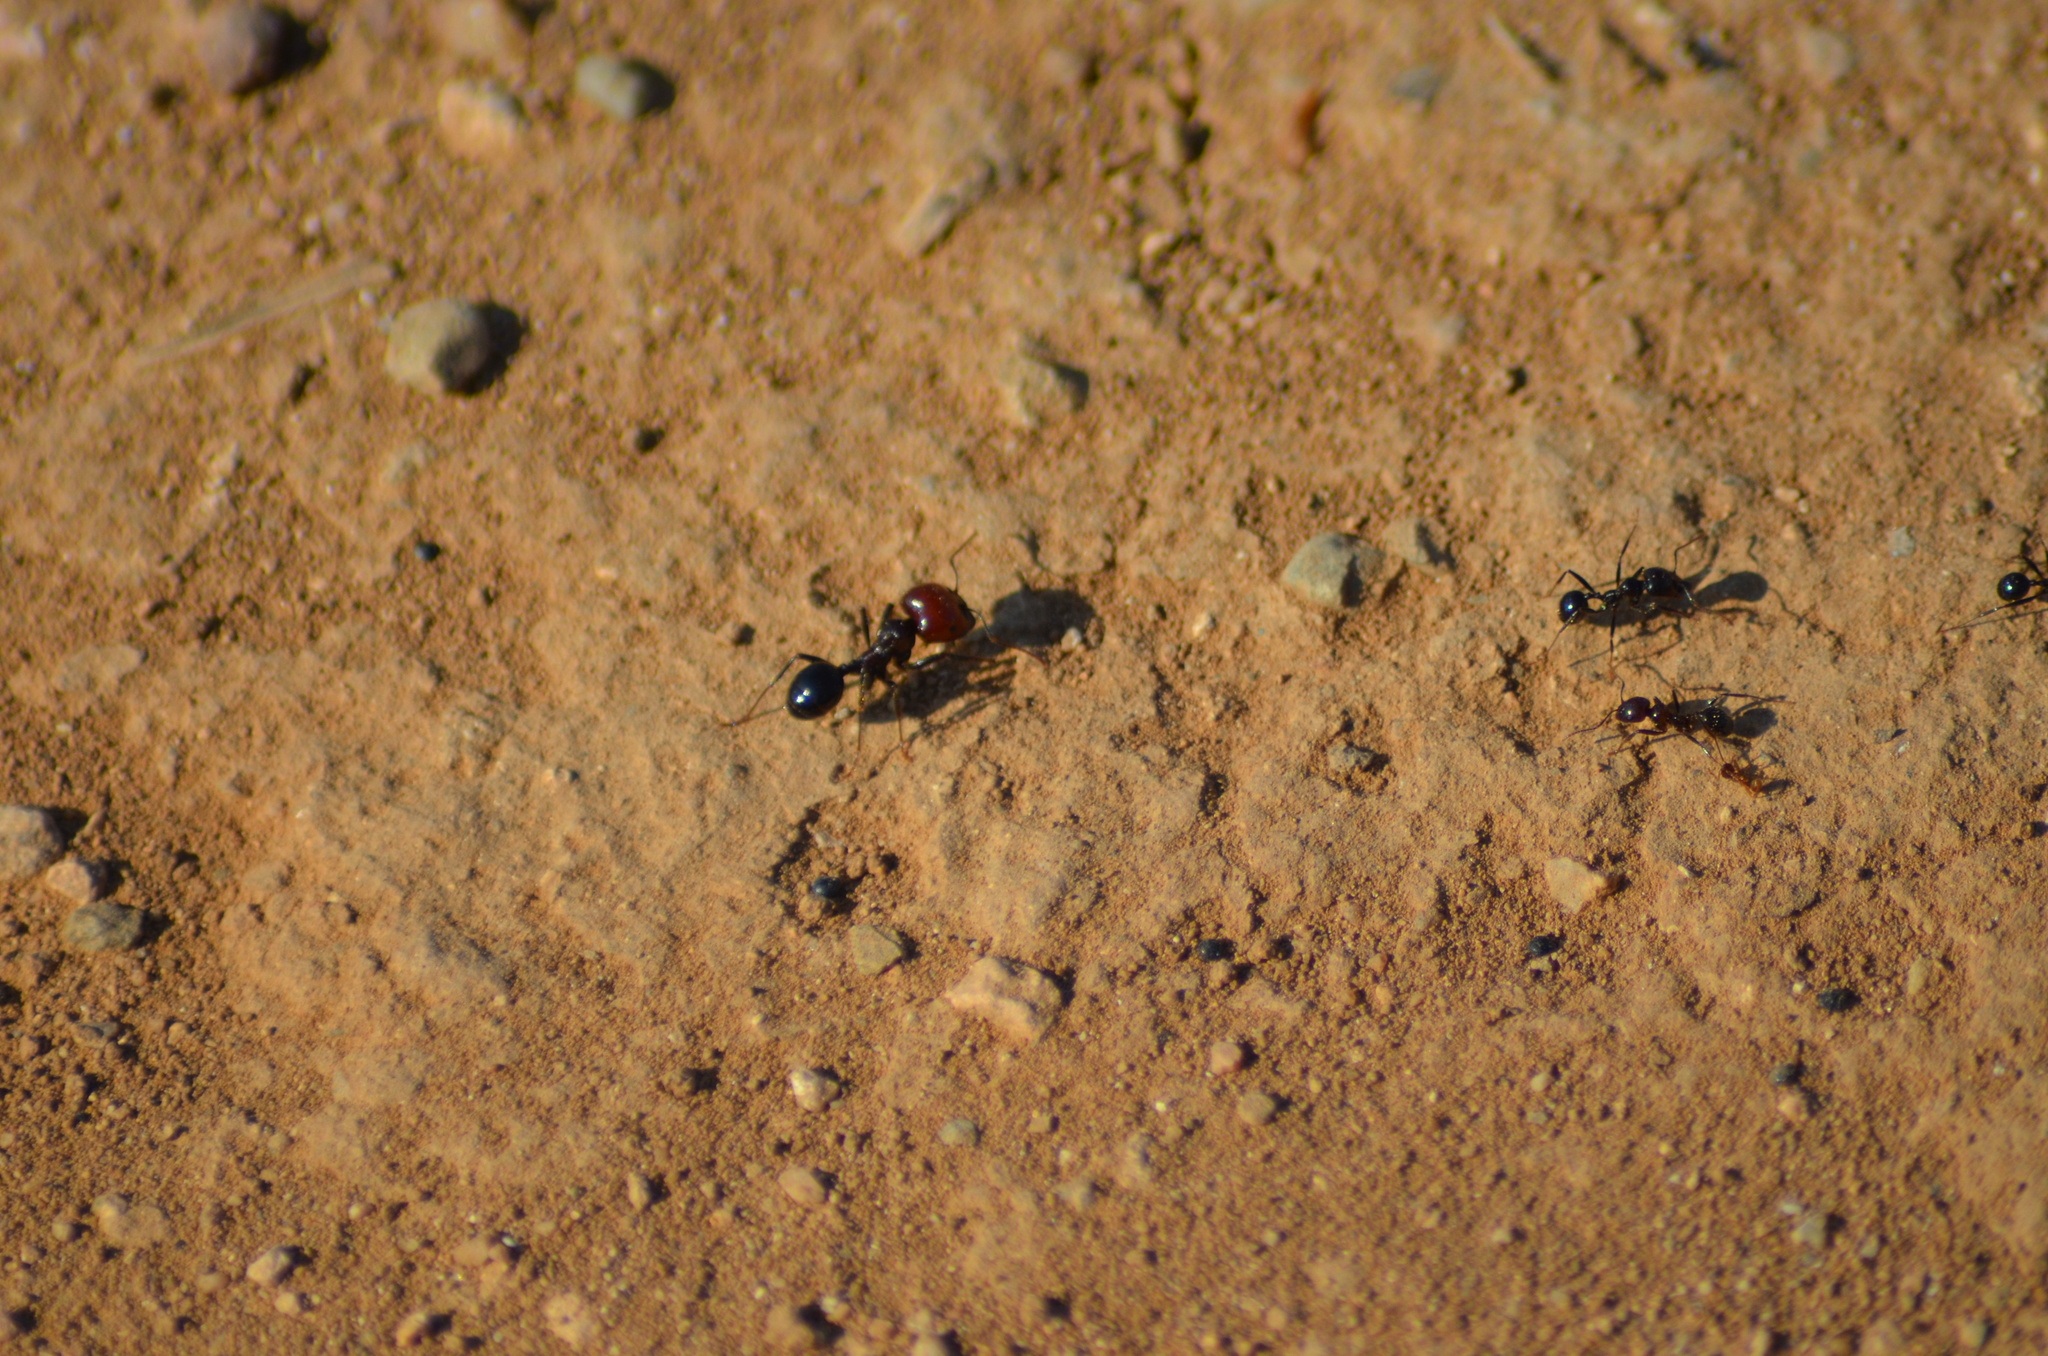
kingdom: Animalia
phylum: Arthropoda
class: Insecta
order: Hymenoptera
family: Formicidae
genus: Messor
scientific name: Messor barbarus
